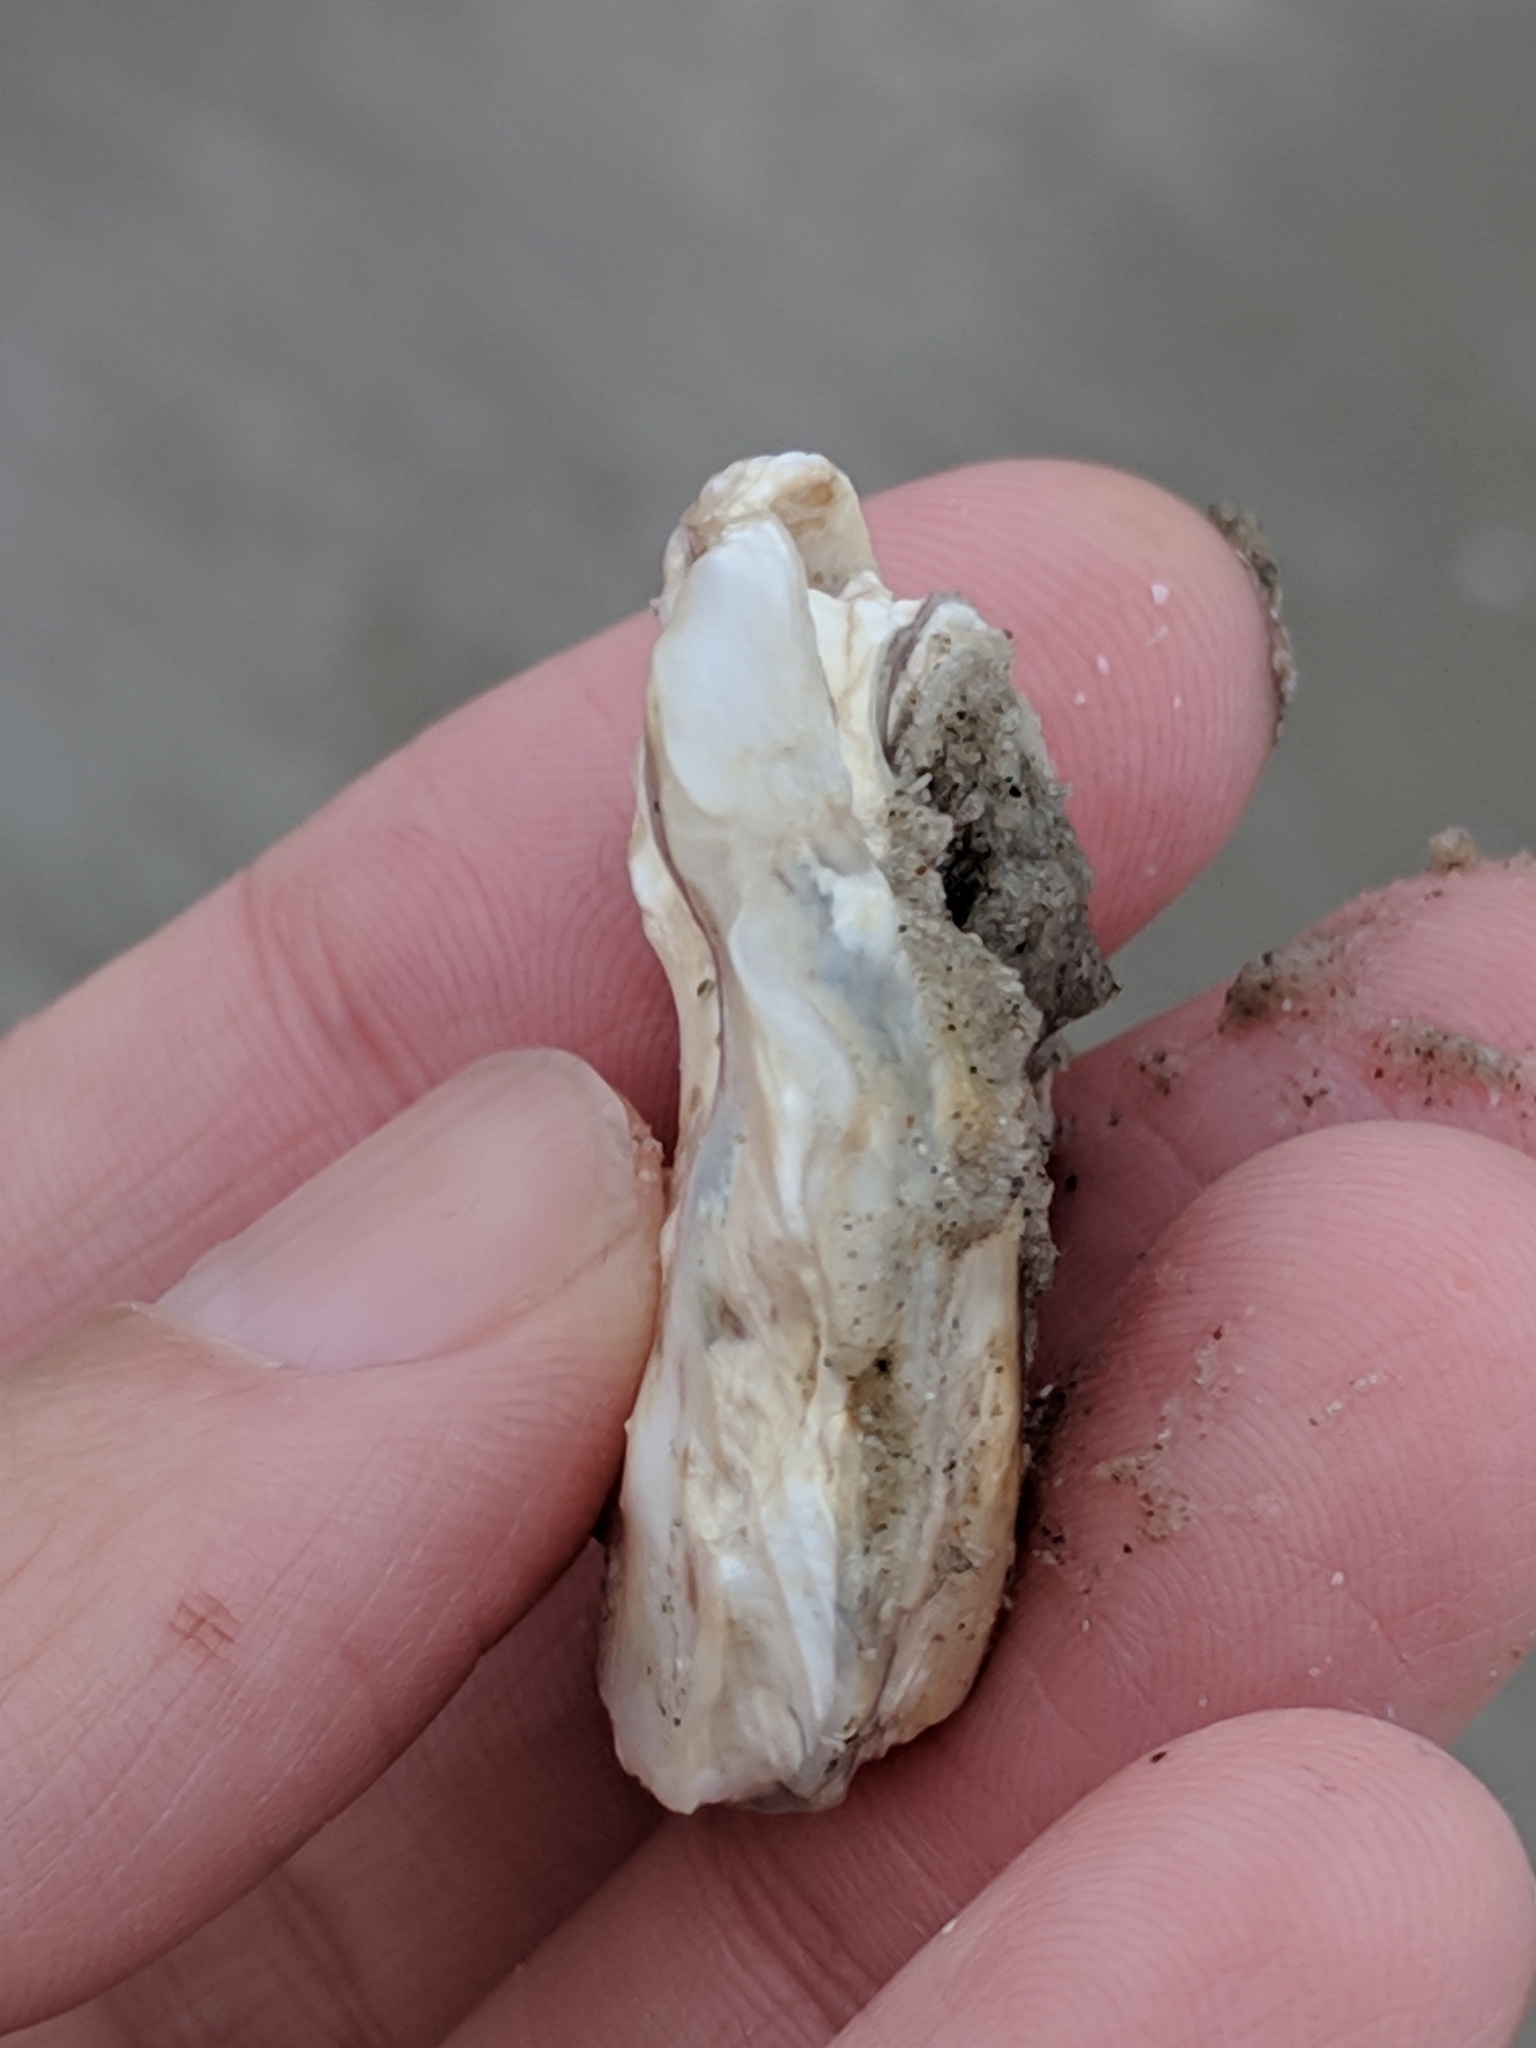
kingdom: Animalia
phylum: Mollusca
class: Bivalvia
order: Ostreida
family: Ostreidae
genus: Crassostrea
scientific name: Crassostrea virginica
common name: American oyster
